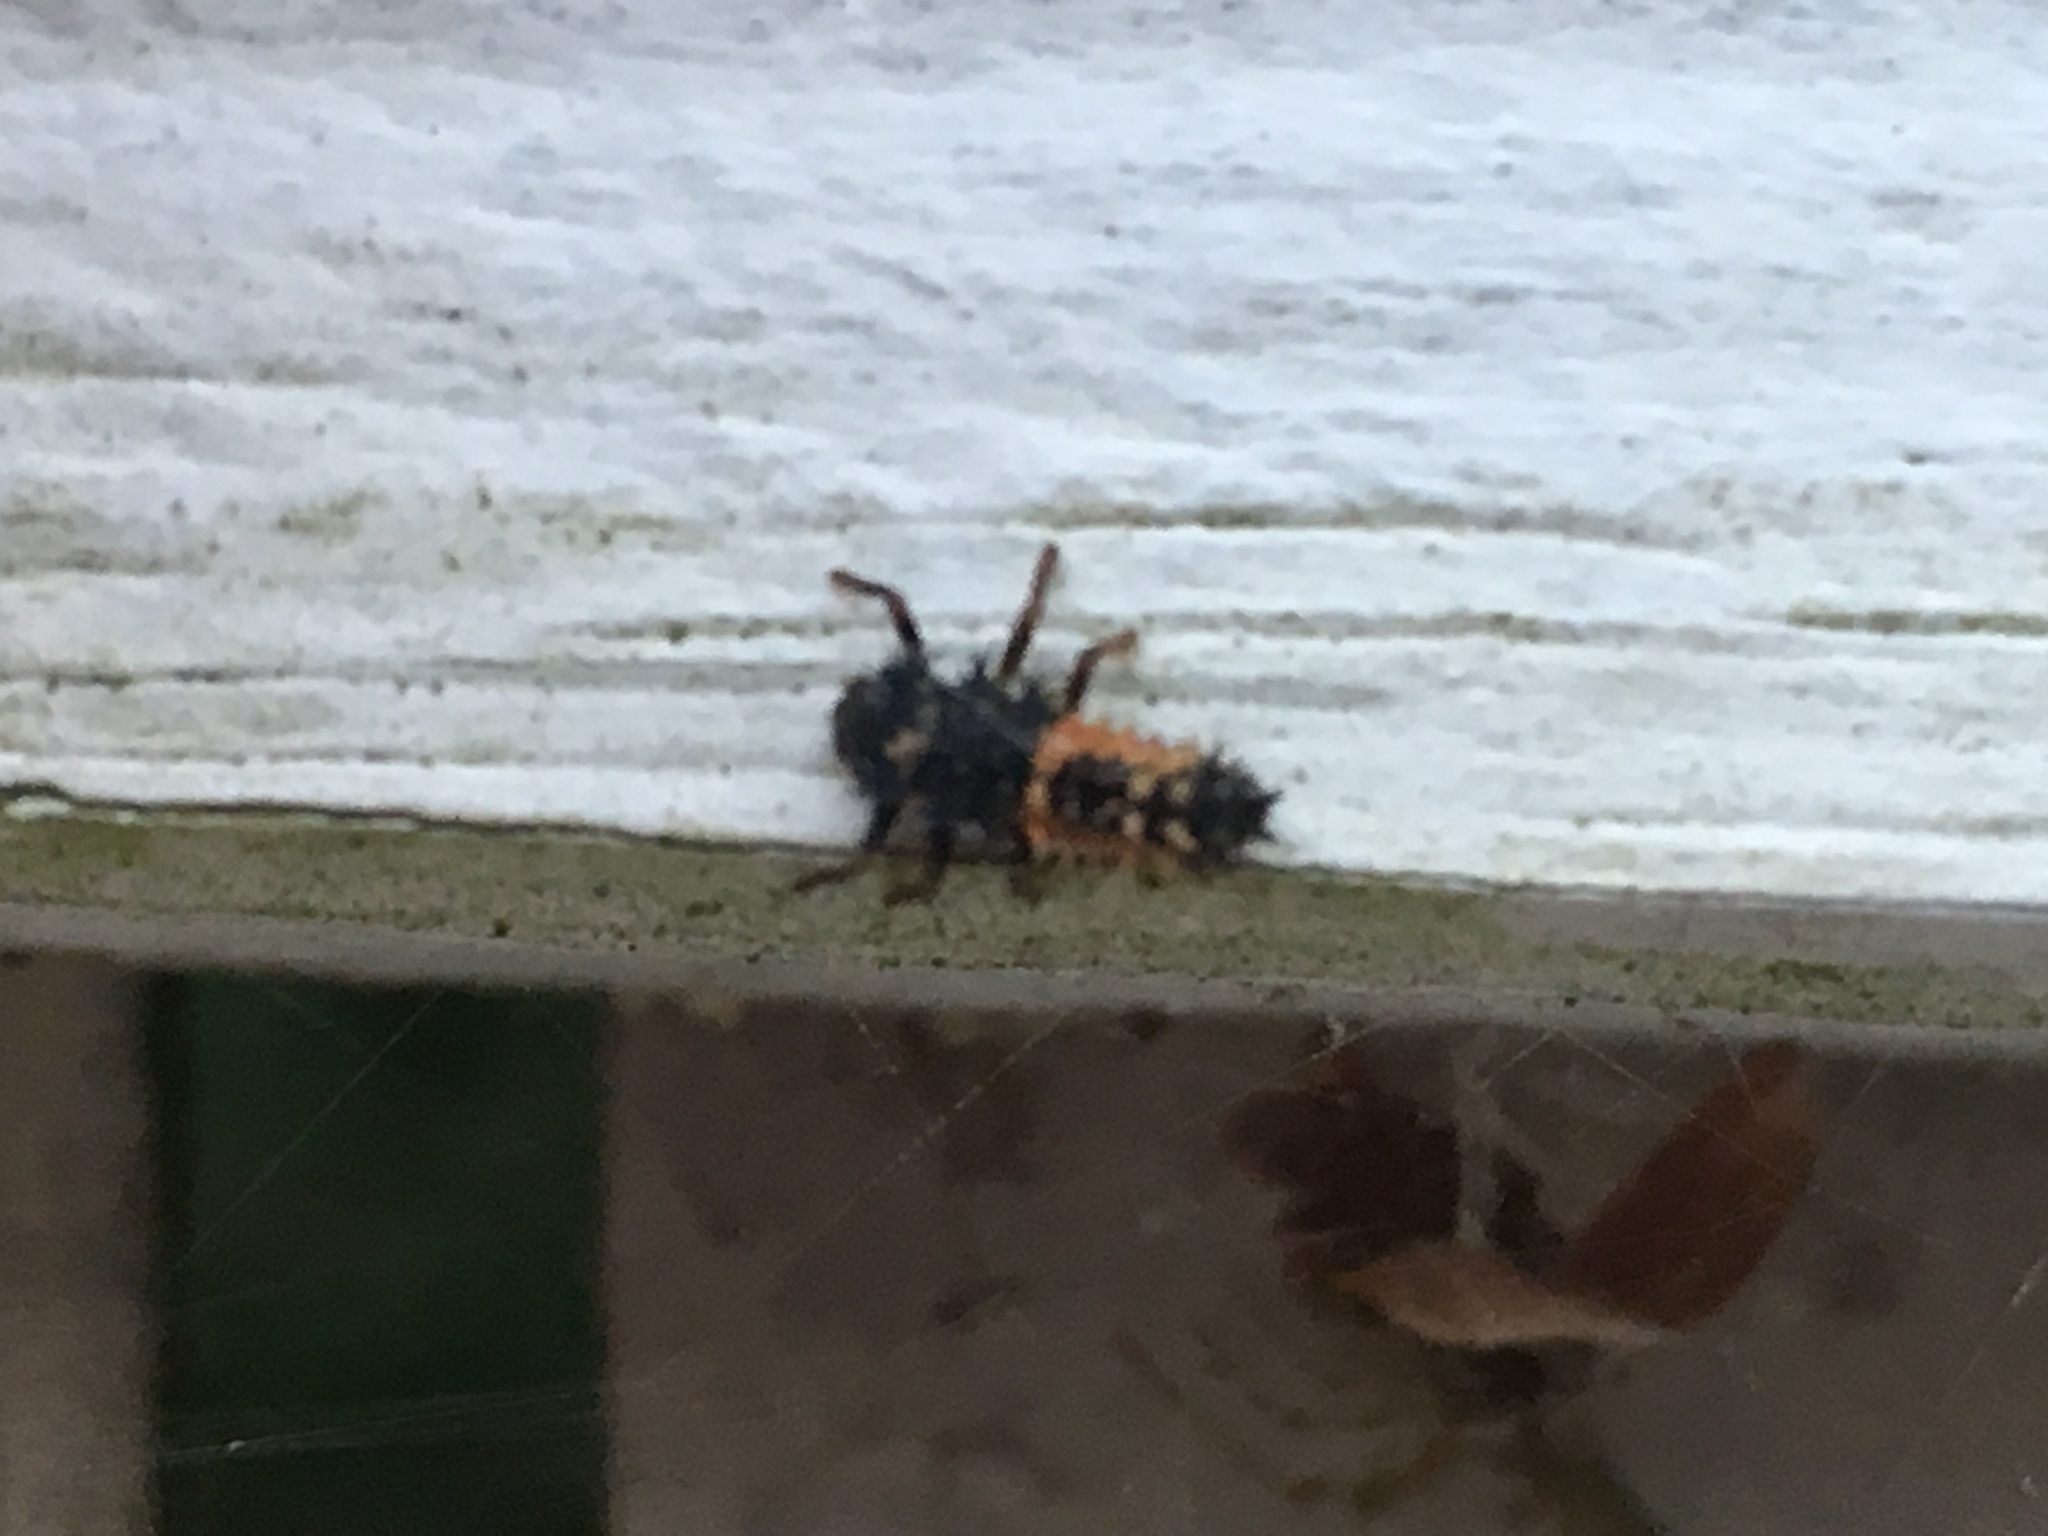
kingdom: Animalia
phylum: Arthropoda
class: Insecta
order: Coleoptera
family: Coccinellidae
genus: Harmonia
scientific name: Harmonia axyridis
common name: Harlequin ladybird
